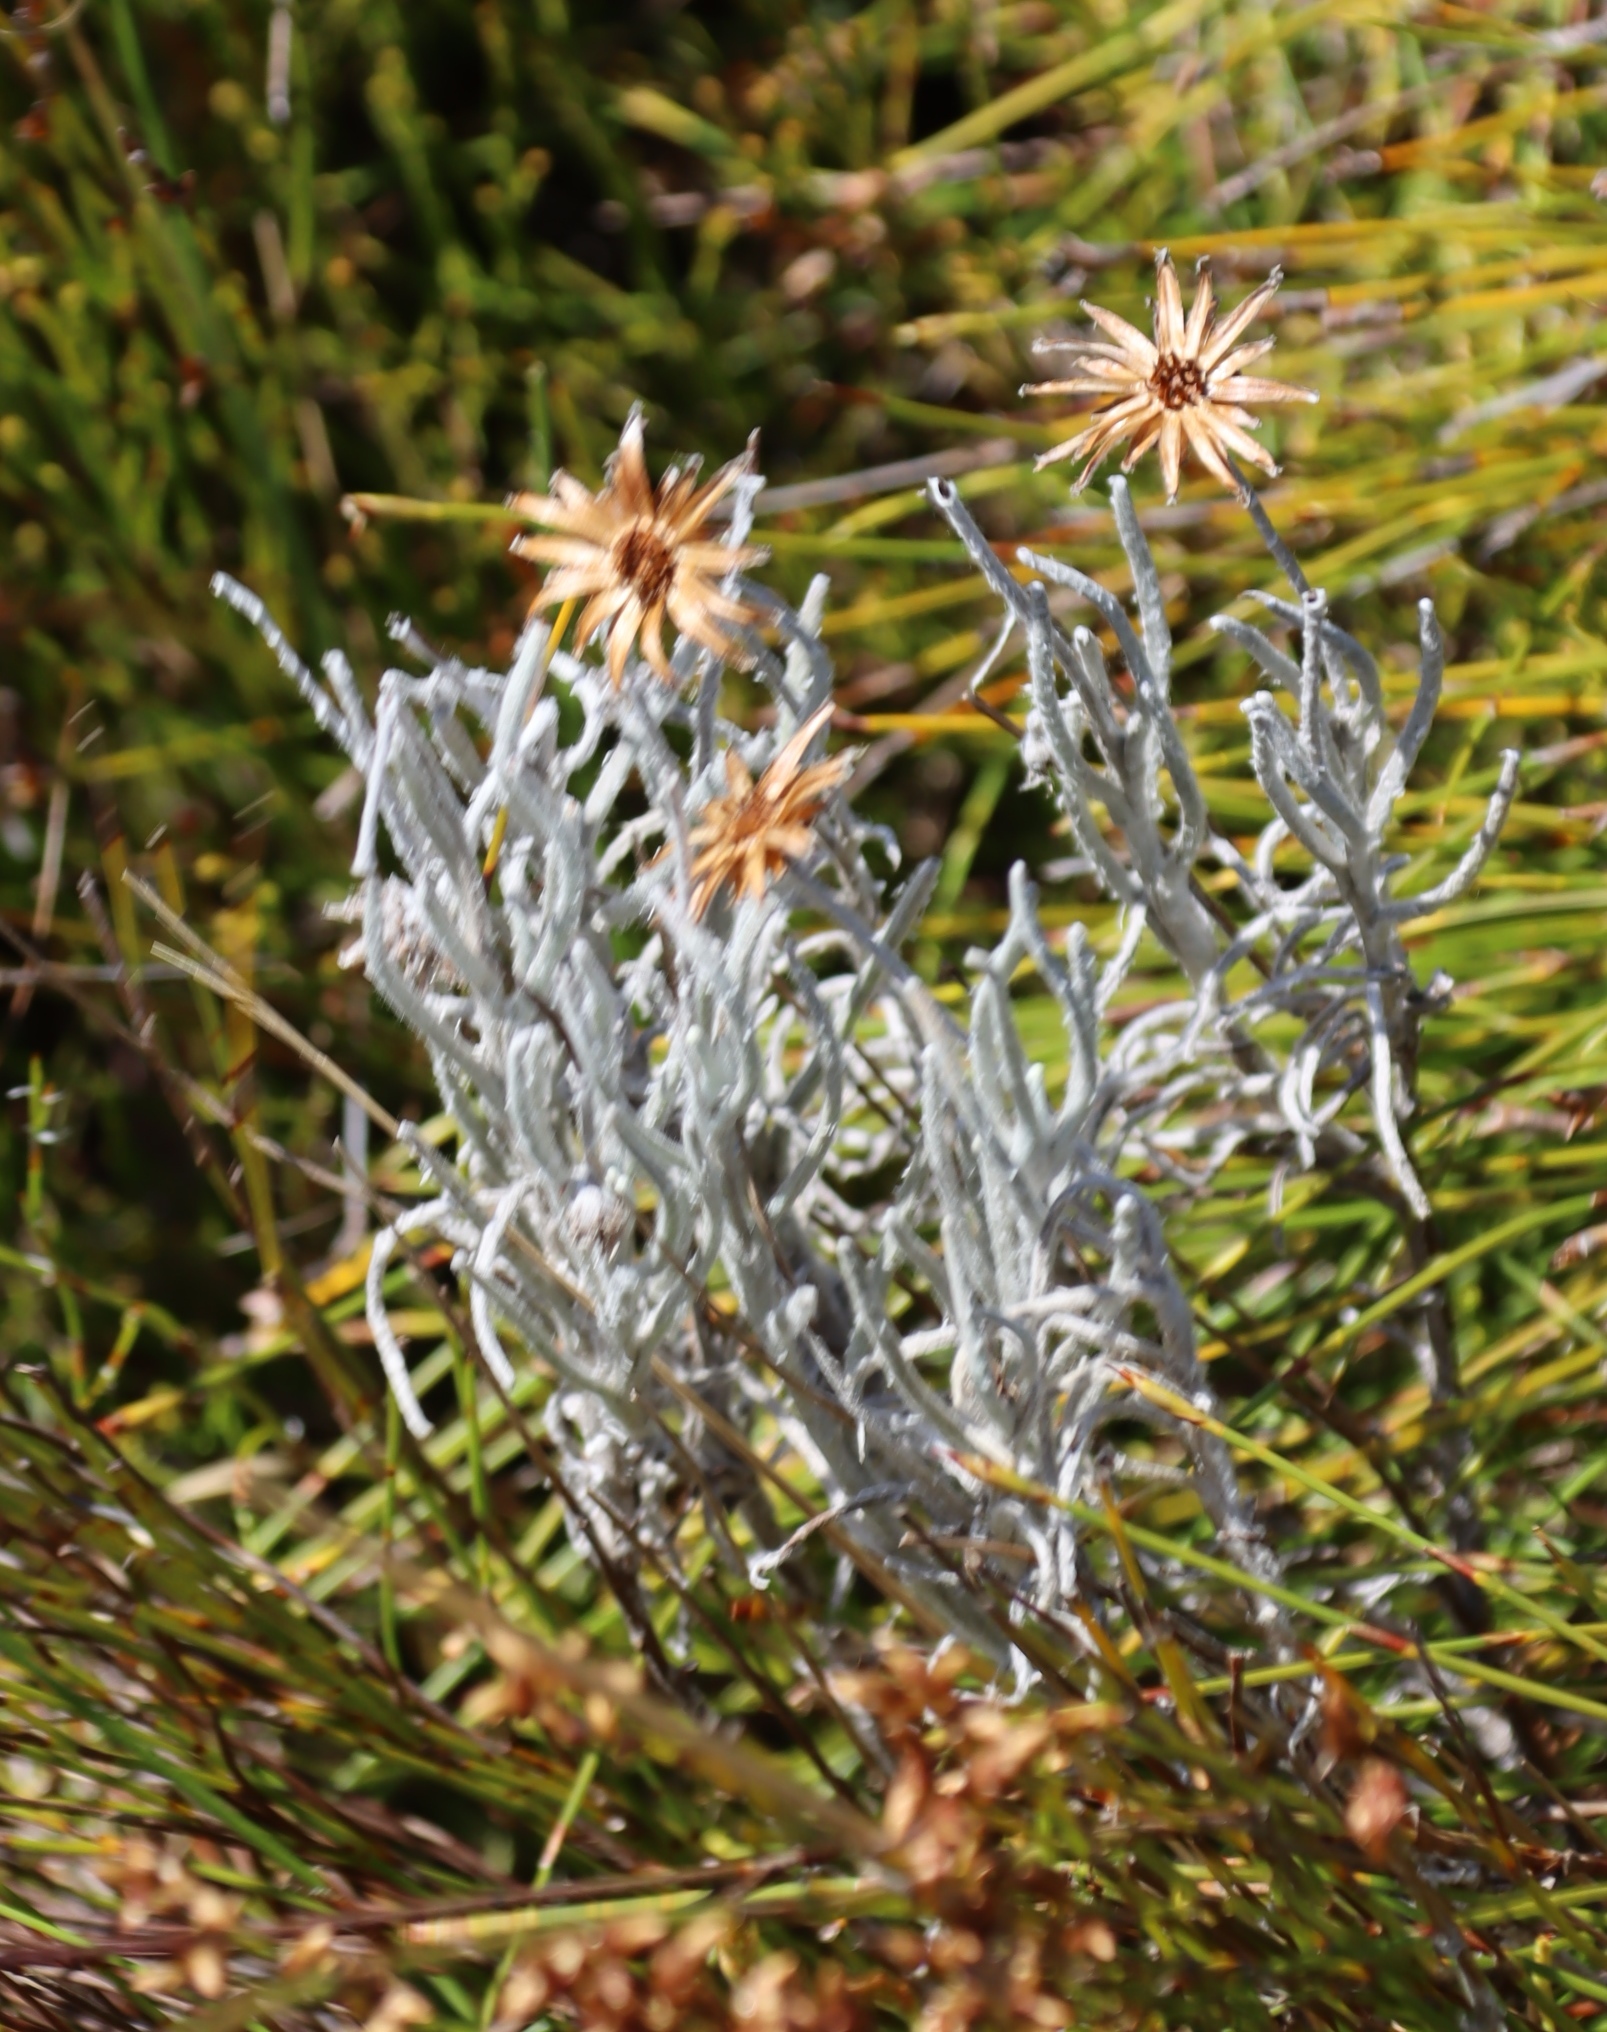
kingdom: Plantae
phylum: Tracheophyta
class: Magnoliopsida
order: Asterales
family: Asteraceae
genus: Syncarpha
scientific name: Syncarpha gnaphaloides
